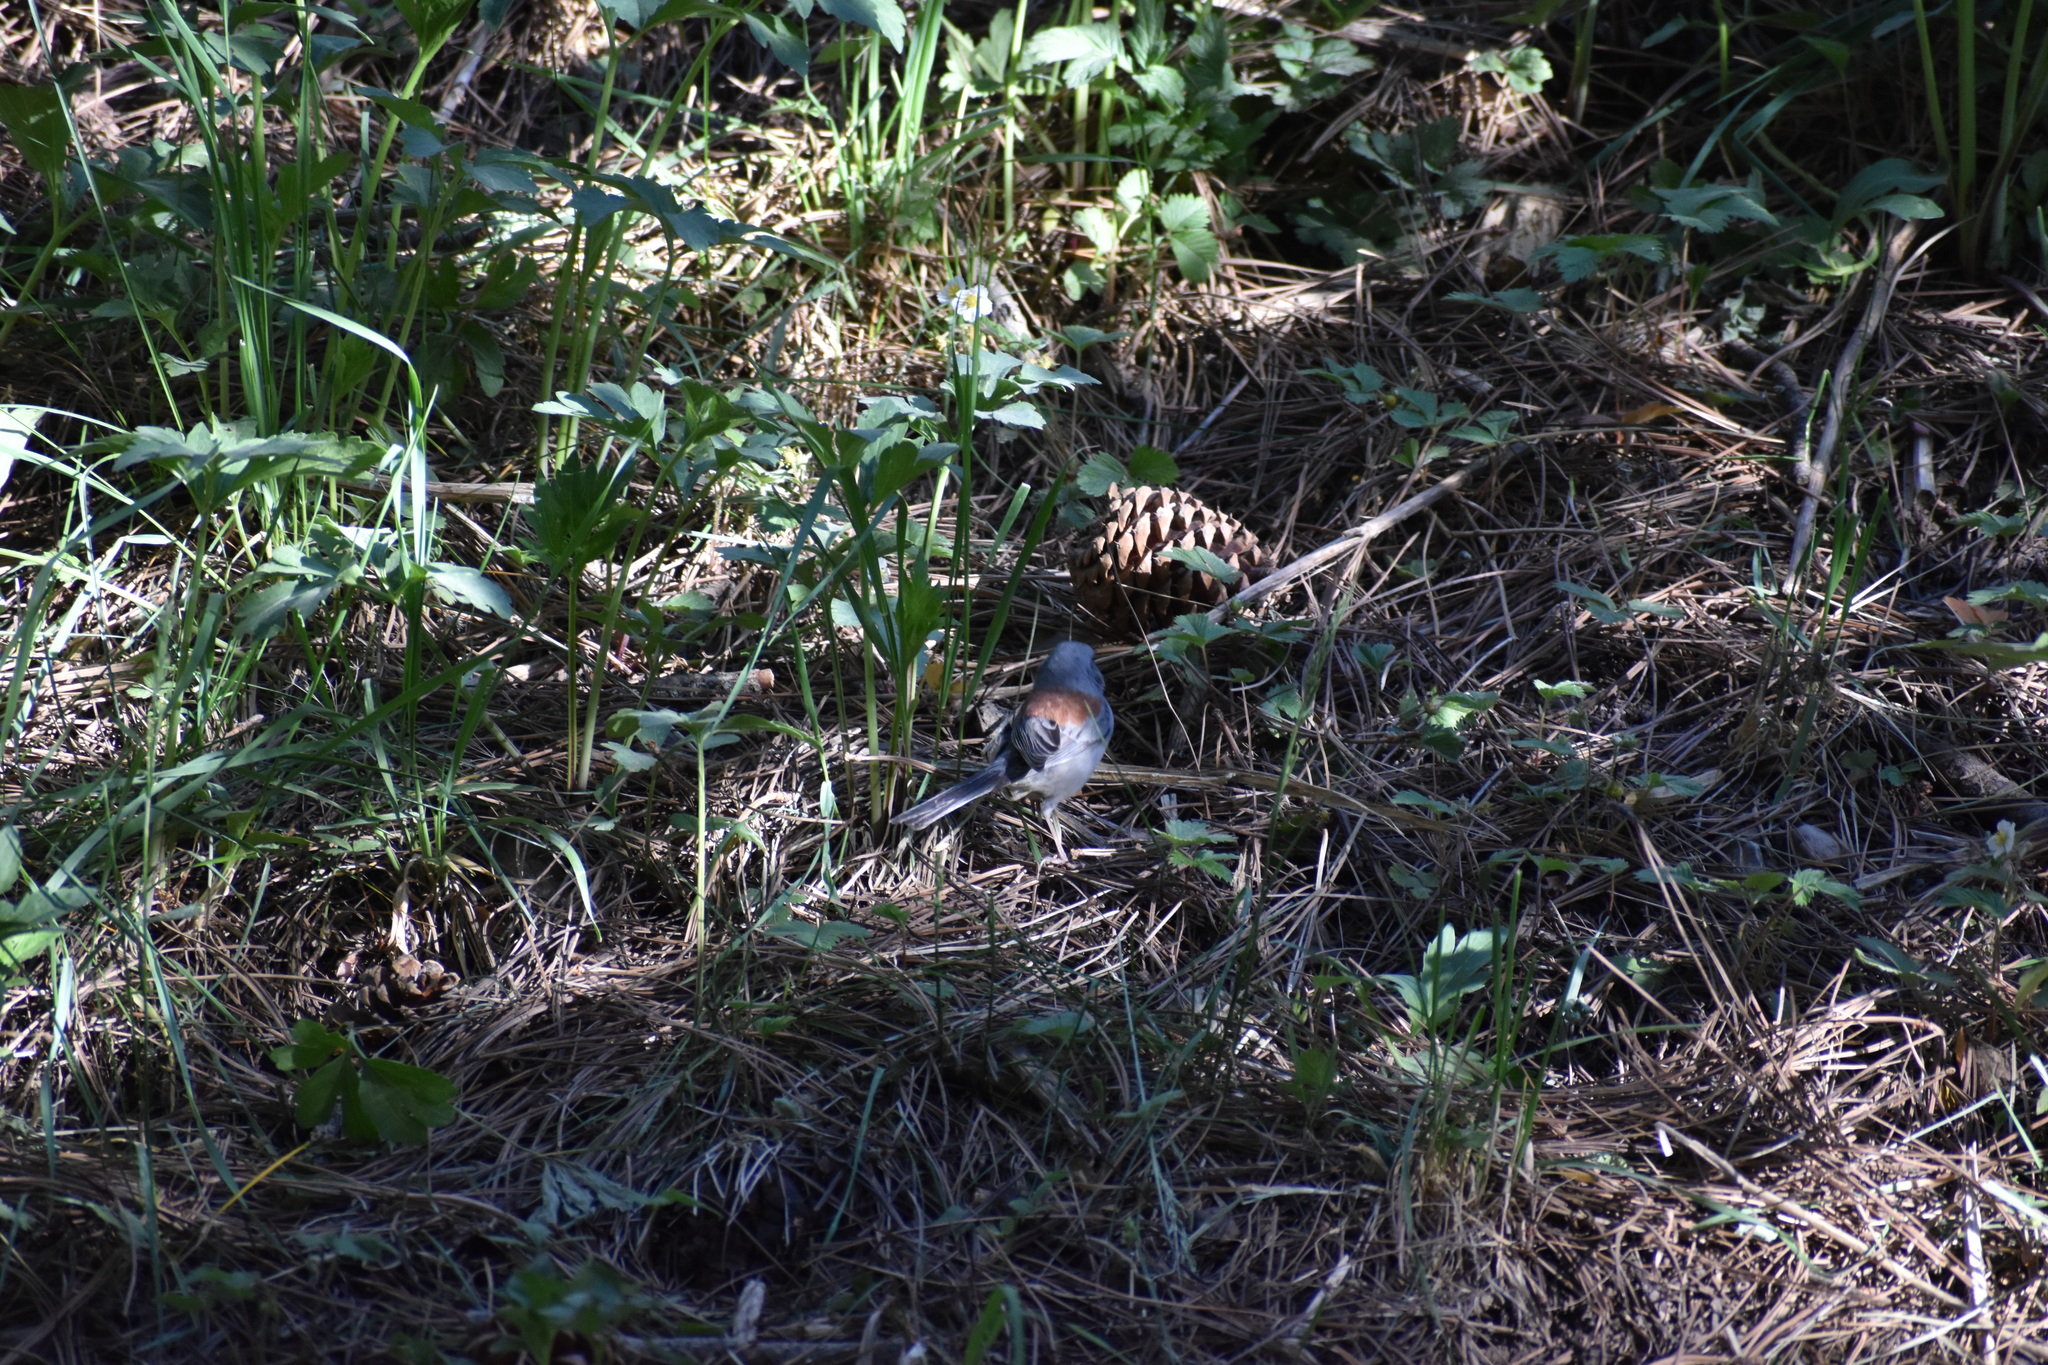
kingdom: Animalia
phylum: Chordata
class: Aves
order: Passeriformes
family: Passerellidae
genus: Junco
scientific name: Junco hyemalis
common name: Dark-eyed junco
